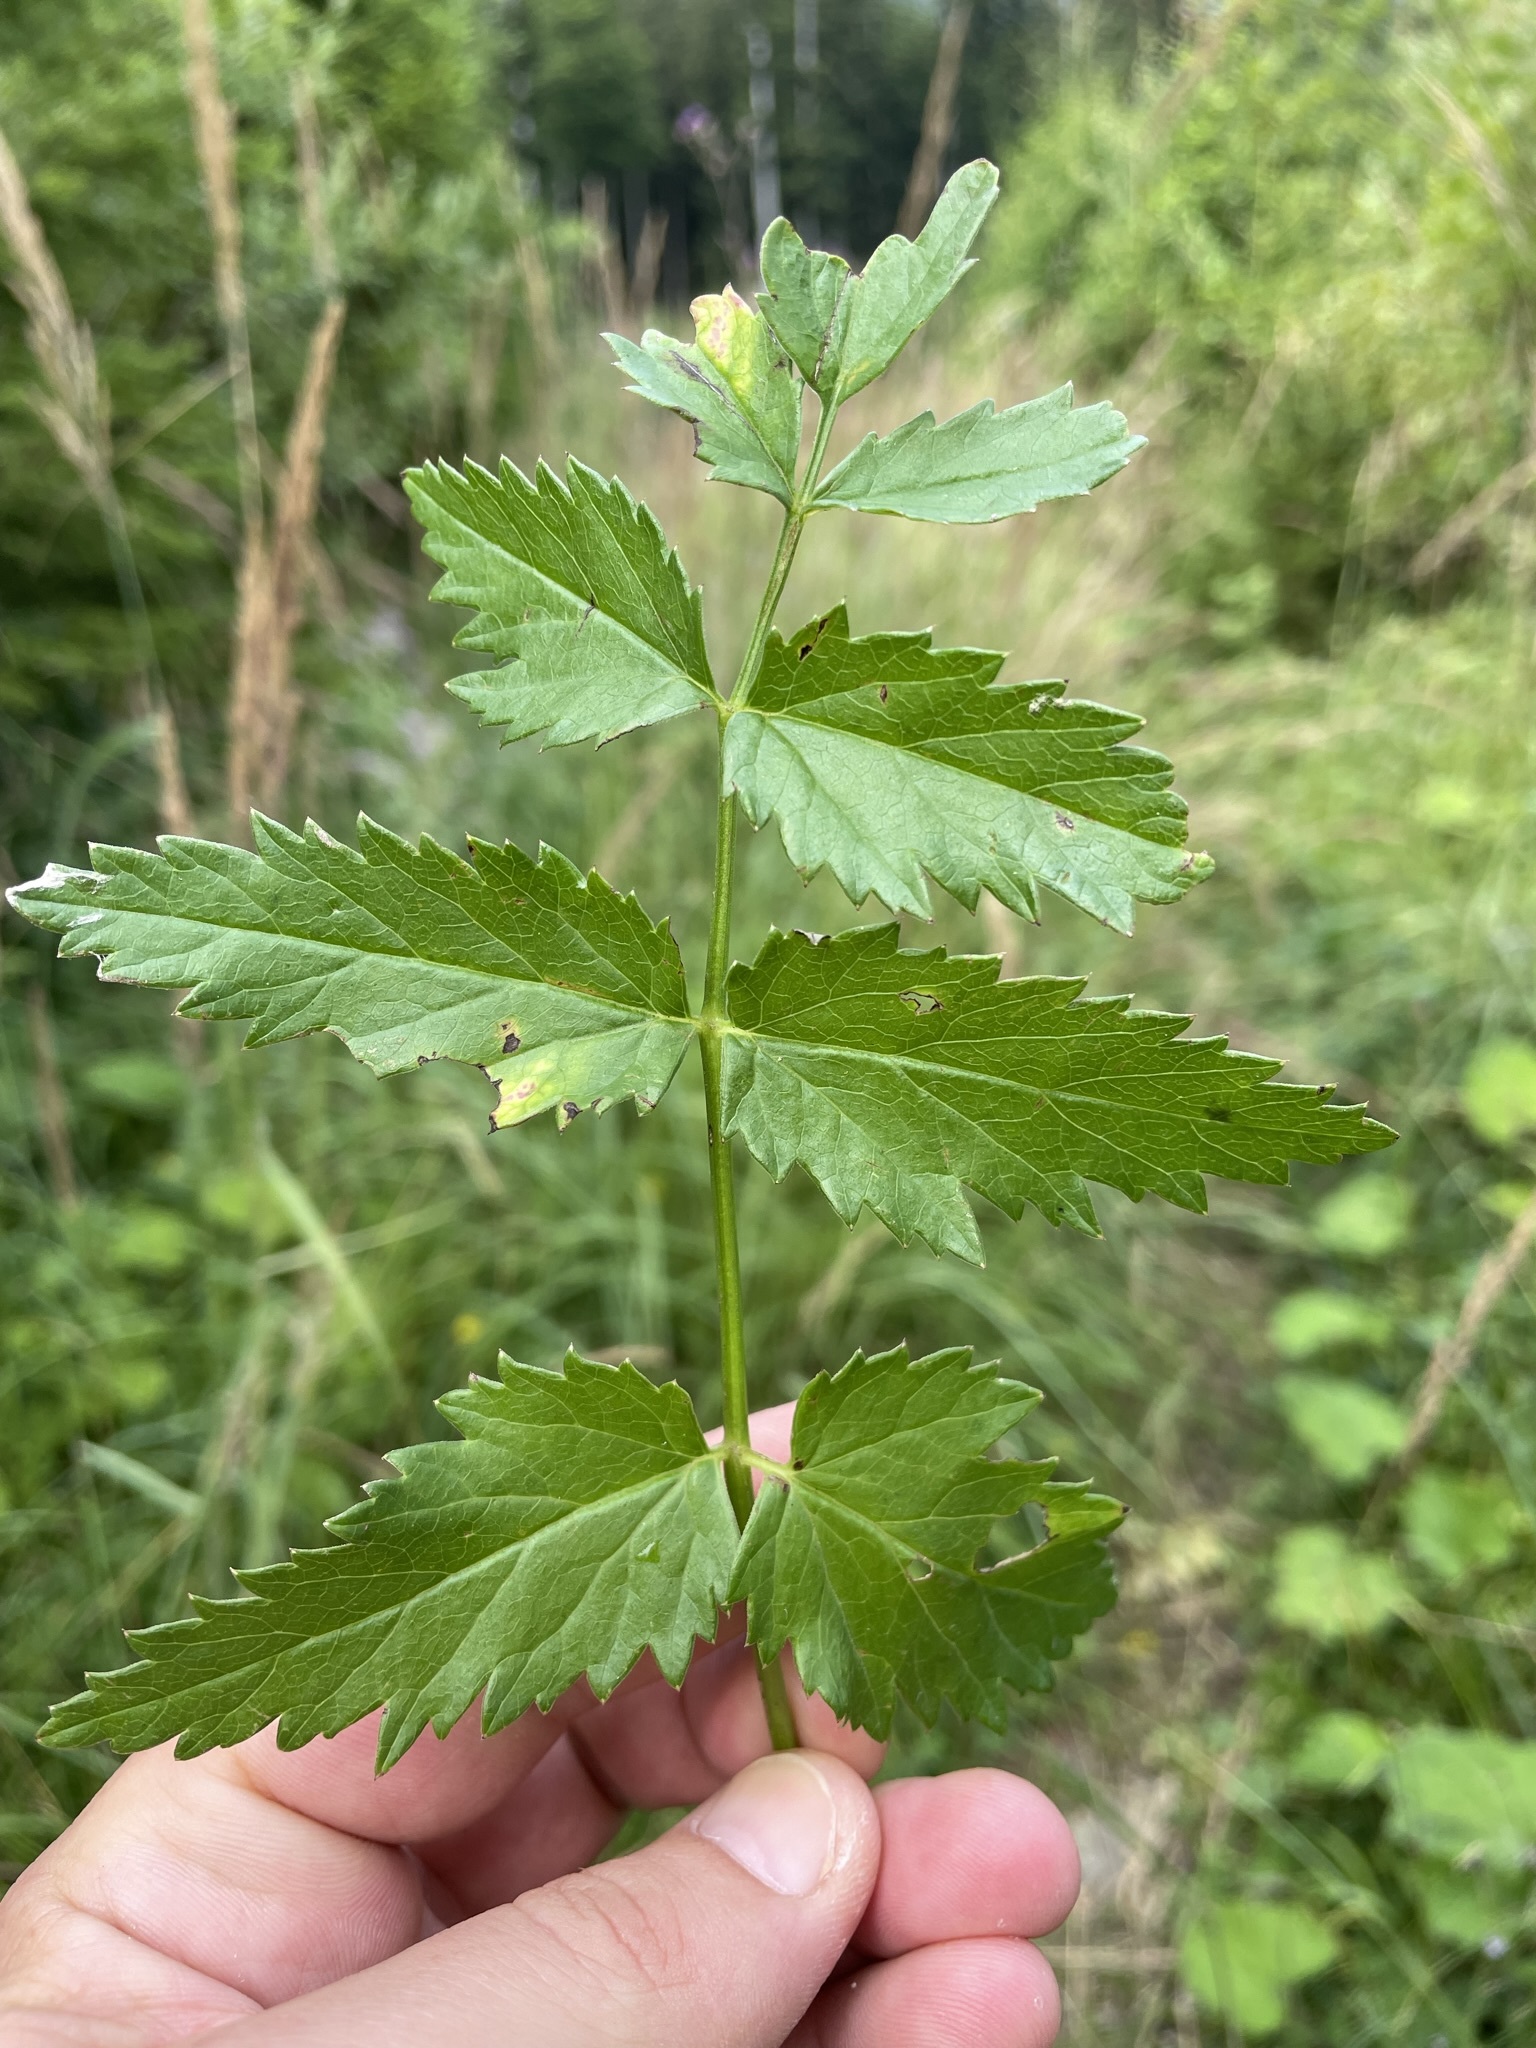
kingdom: Plantae
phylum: Tracheophyta
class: Magnoliopsida
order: Apiales
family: Apiaceae
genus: Pimpinella
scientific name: Pimpinella major
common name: Greater burnet-saxifrage
